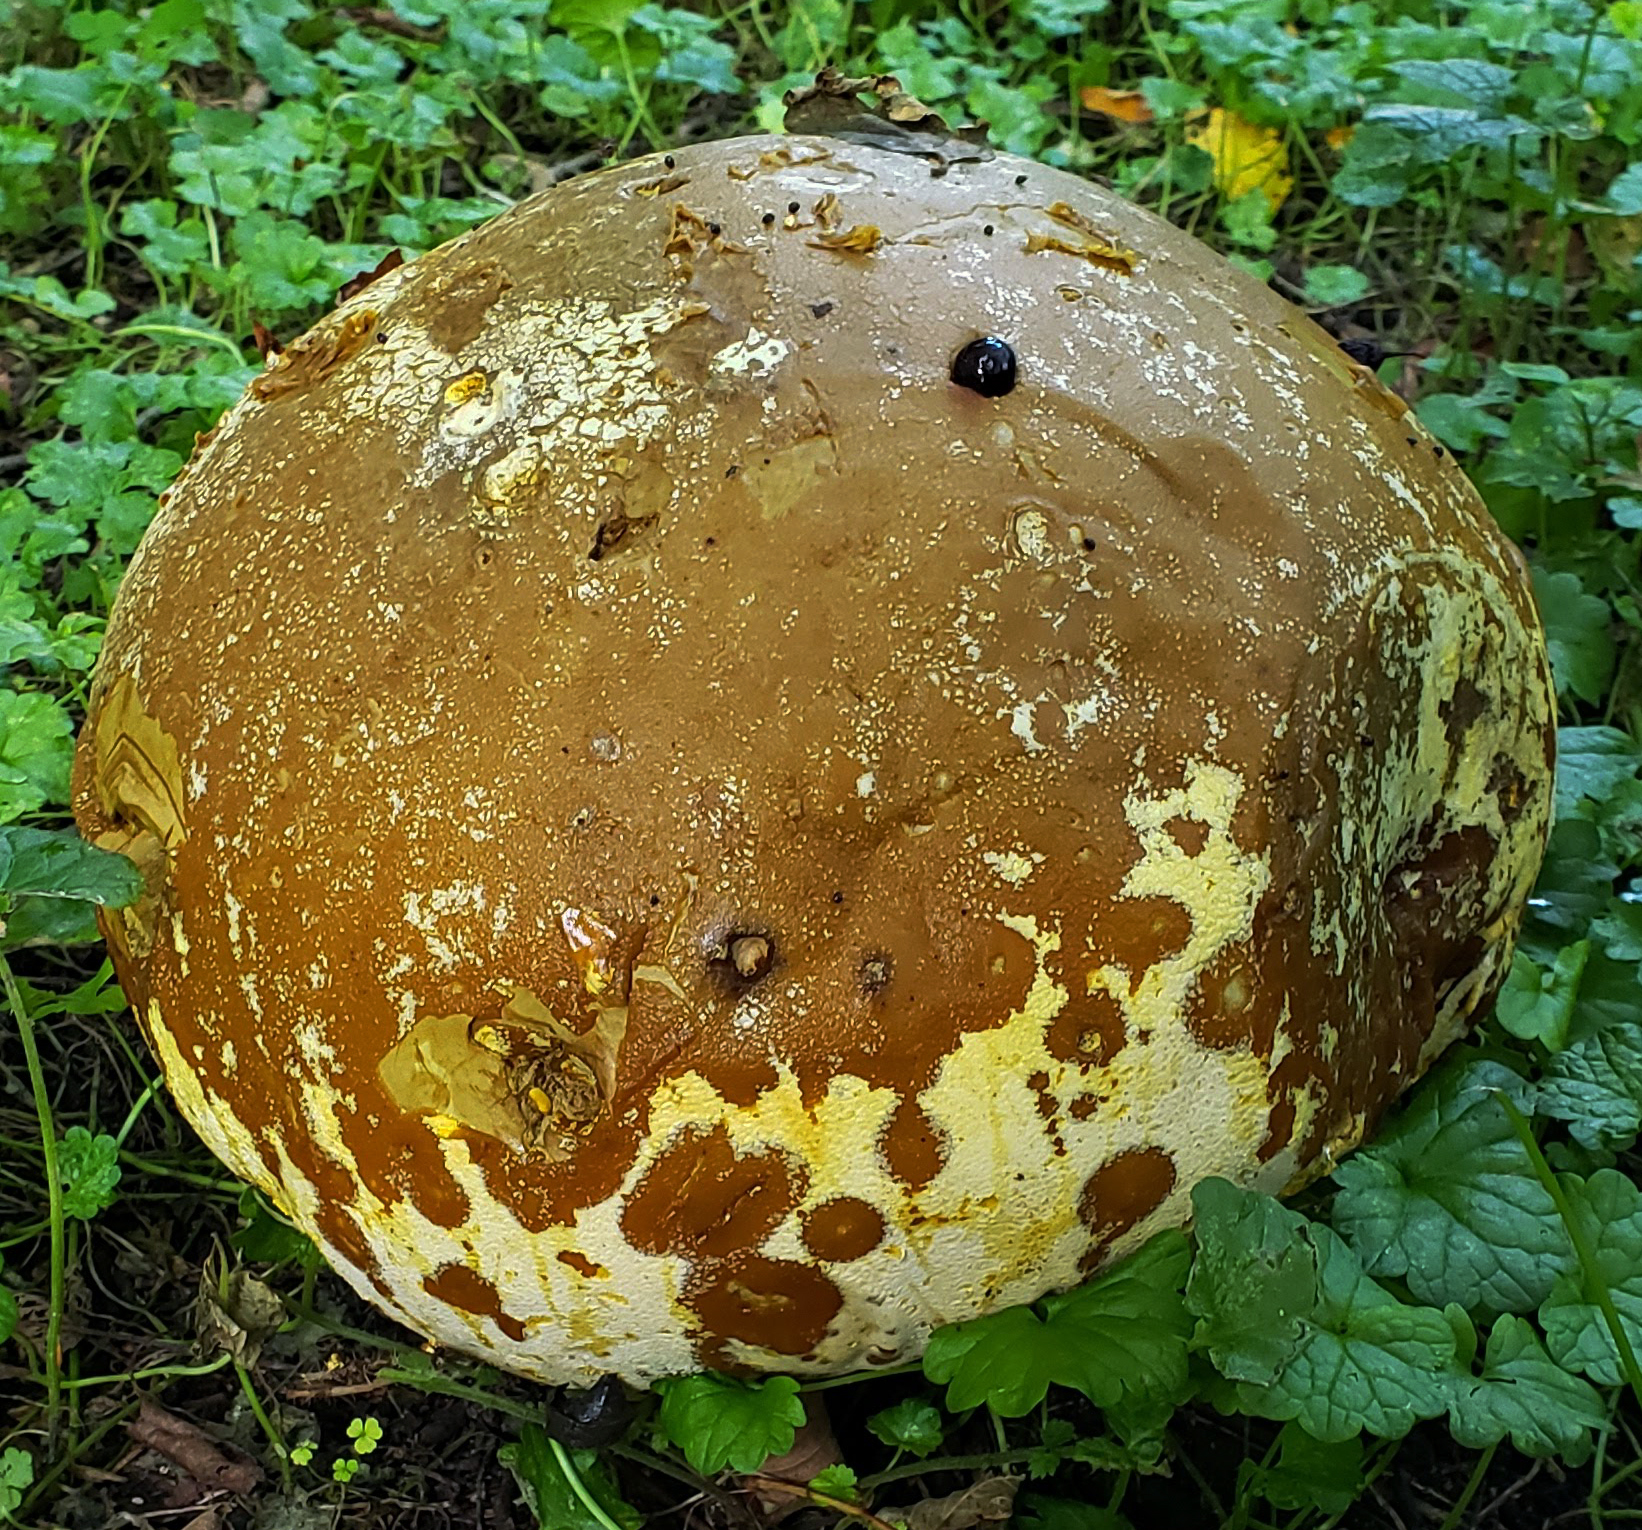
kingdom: Fungi
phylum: Basidiomycota
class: Agaricomycetes
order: Agaricales
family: Lycoperdaceae
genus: Calvatia
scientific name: Calvatia gigantea
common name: Giant puffball
